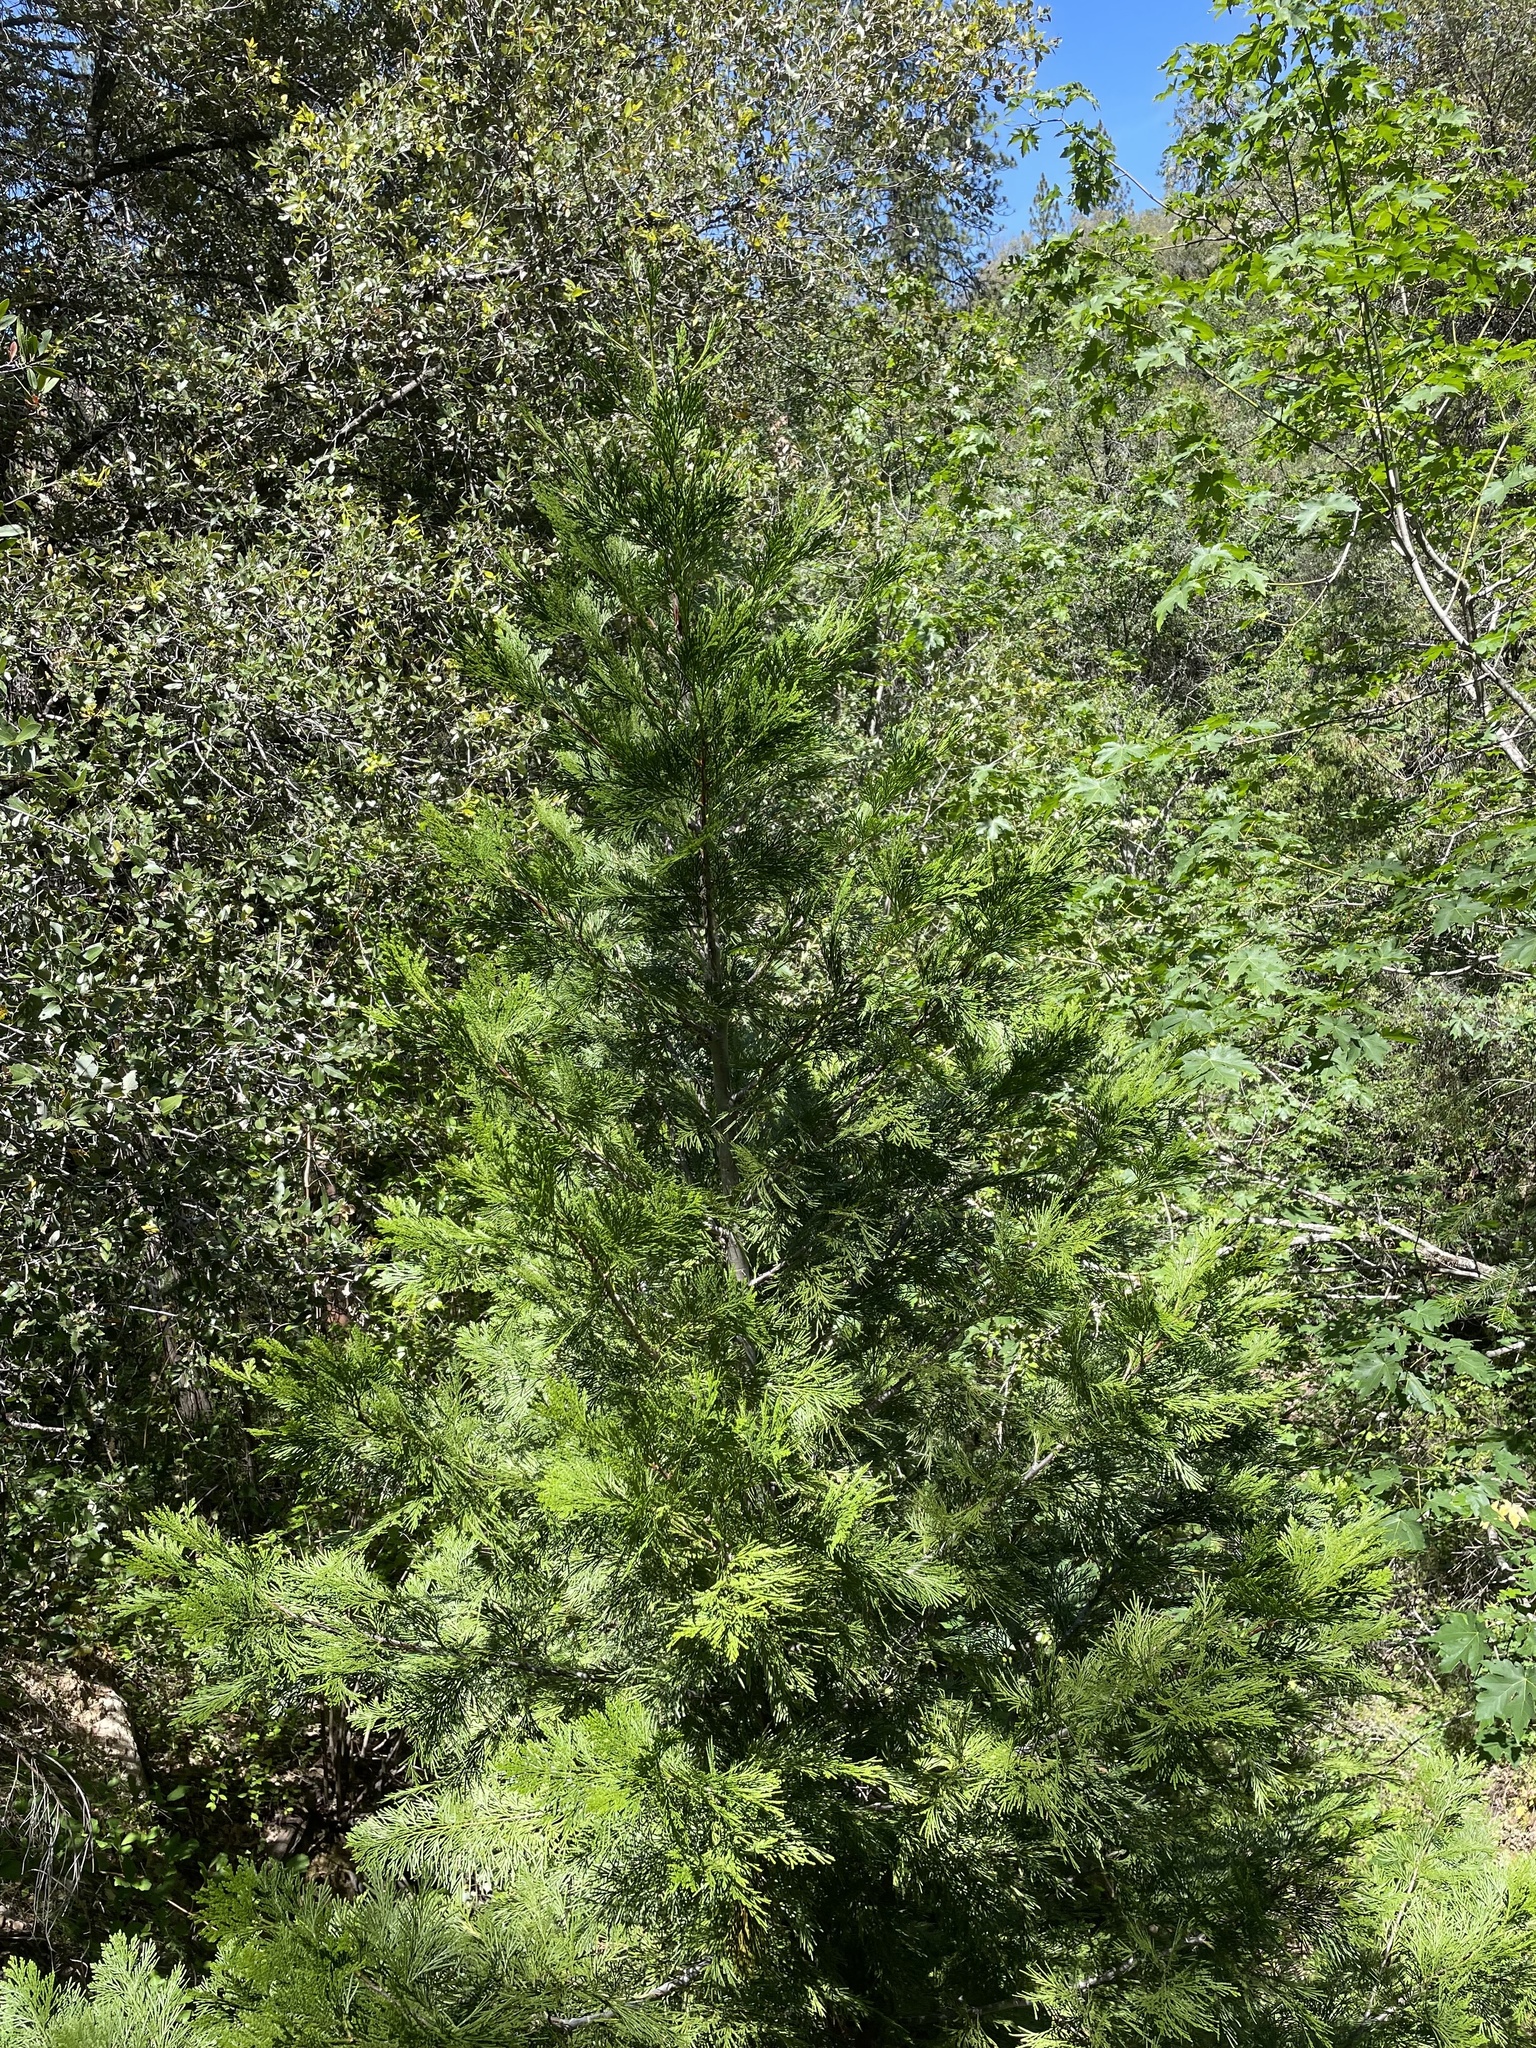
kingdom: Plantae
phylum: Tracheophyta
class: Pinopsida
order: Pinales
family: Cupressaceae
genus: Calocedrus
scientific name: Calocedrus decurrens
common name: Californian incense-cedar
